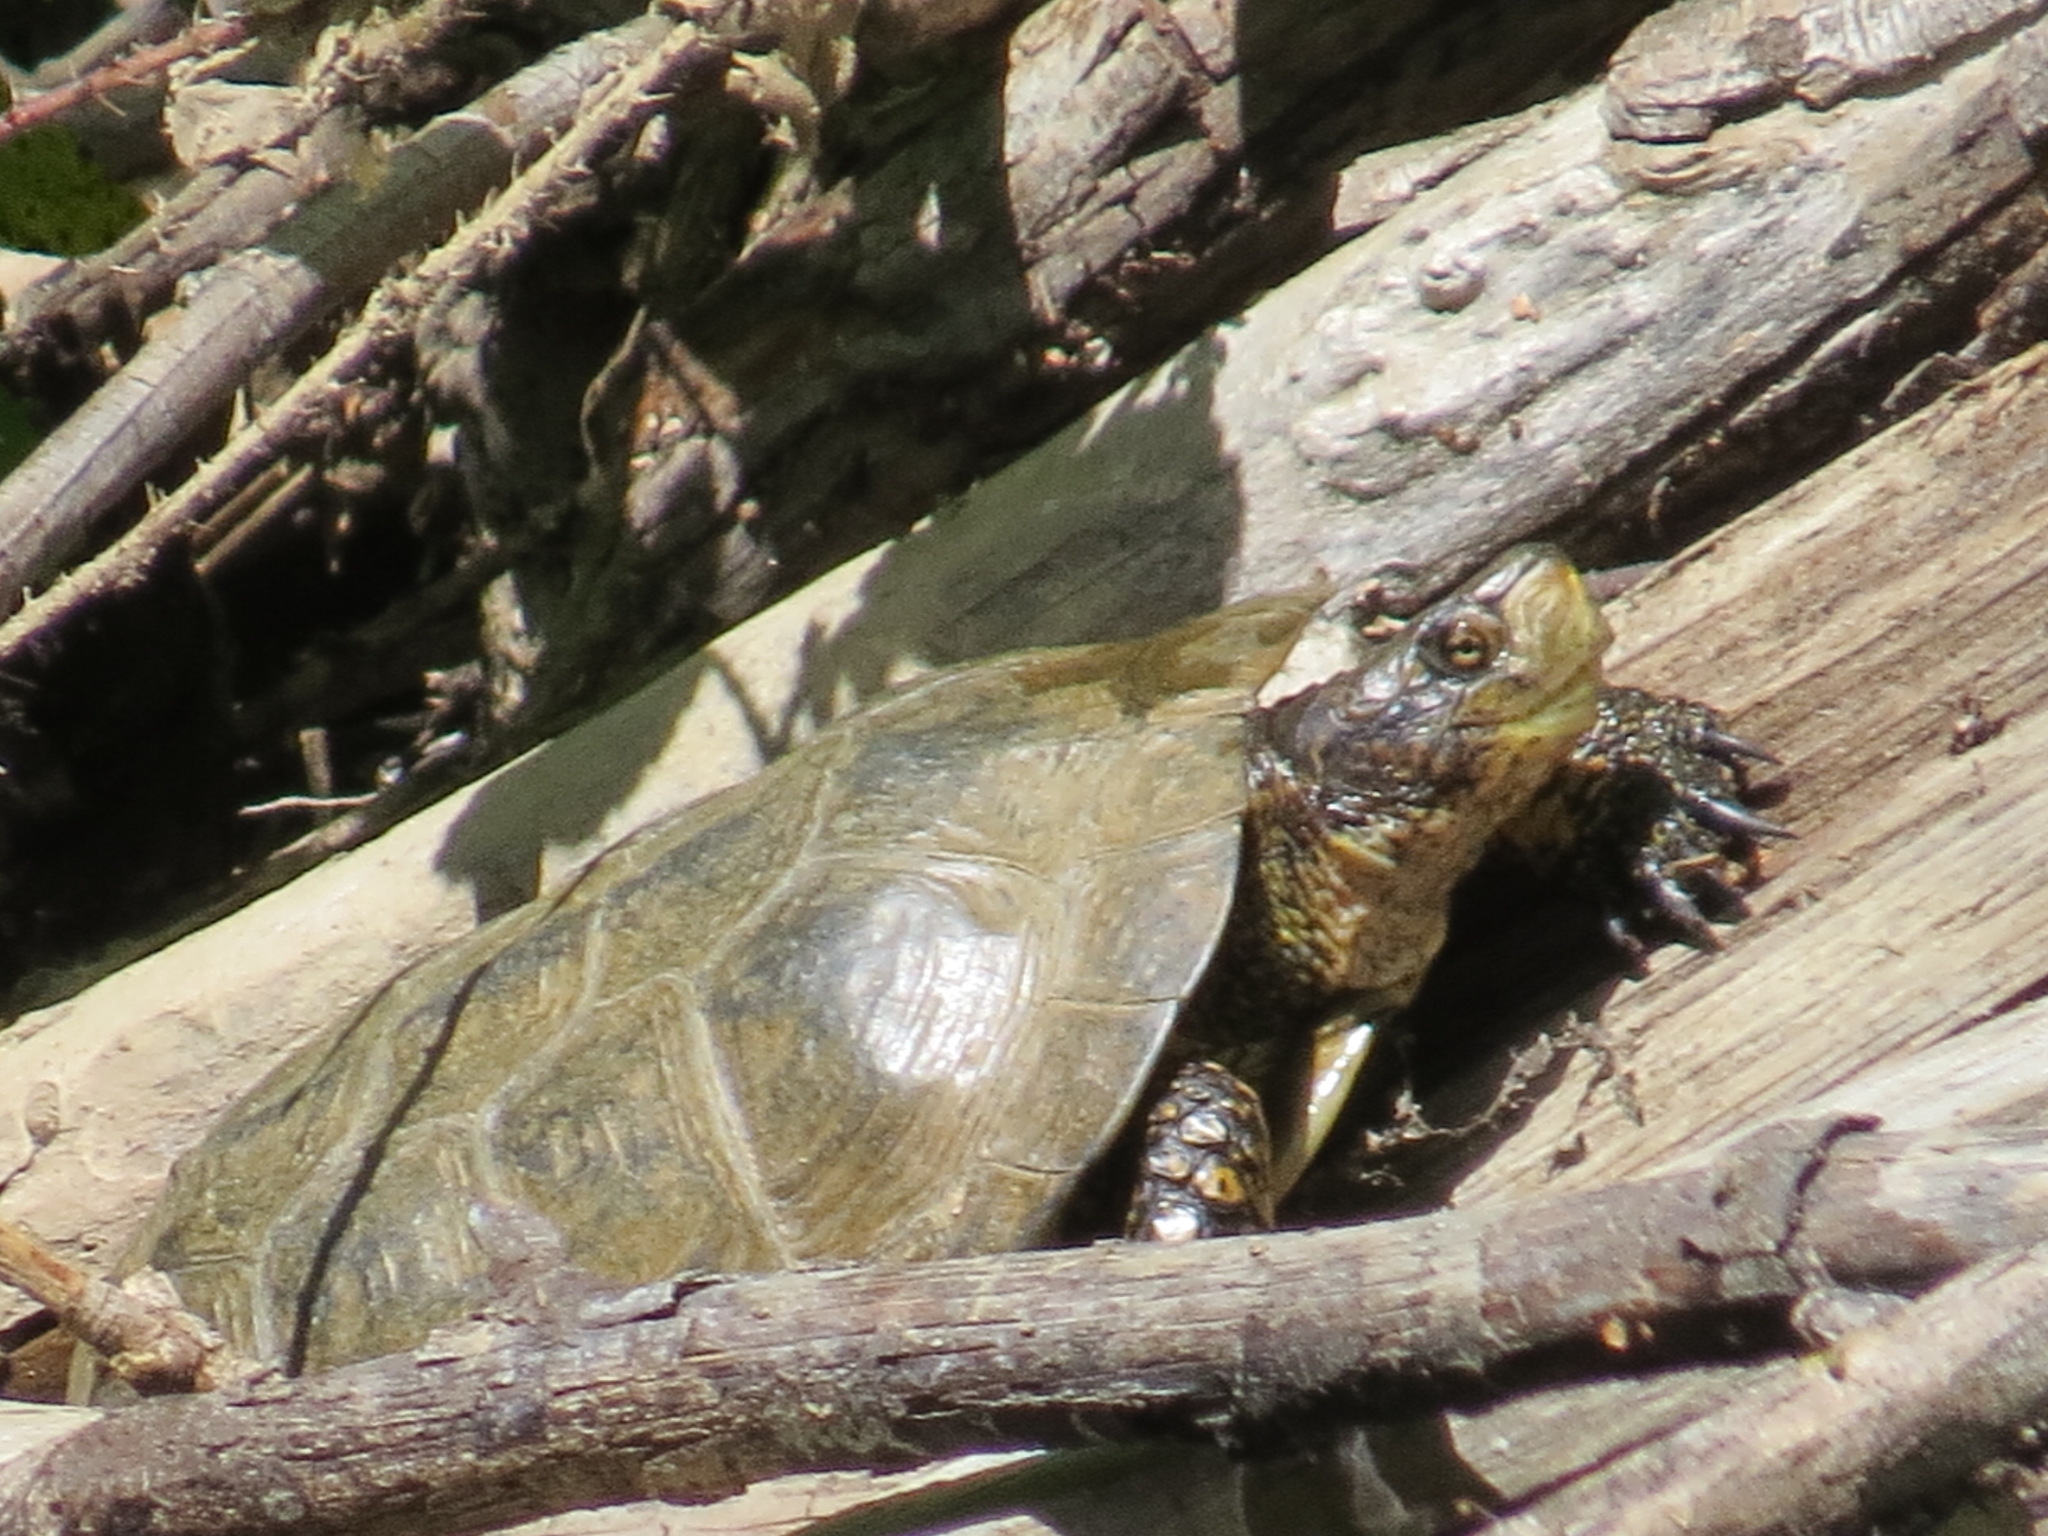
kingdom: Animalia
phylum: Chordata
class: Testudines
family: Emydidae
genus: Actinemys
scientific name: Actinemys marmorata
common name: Western pond turtle
